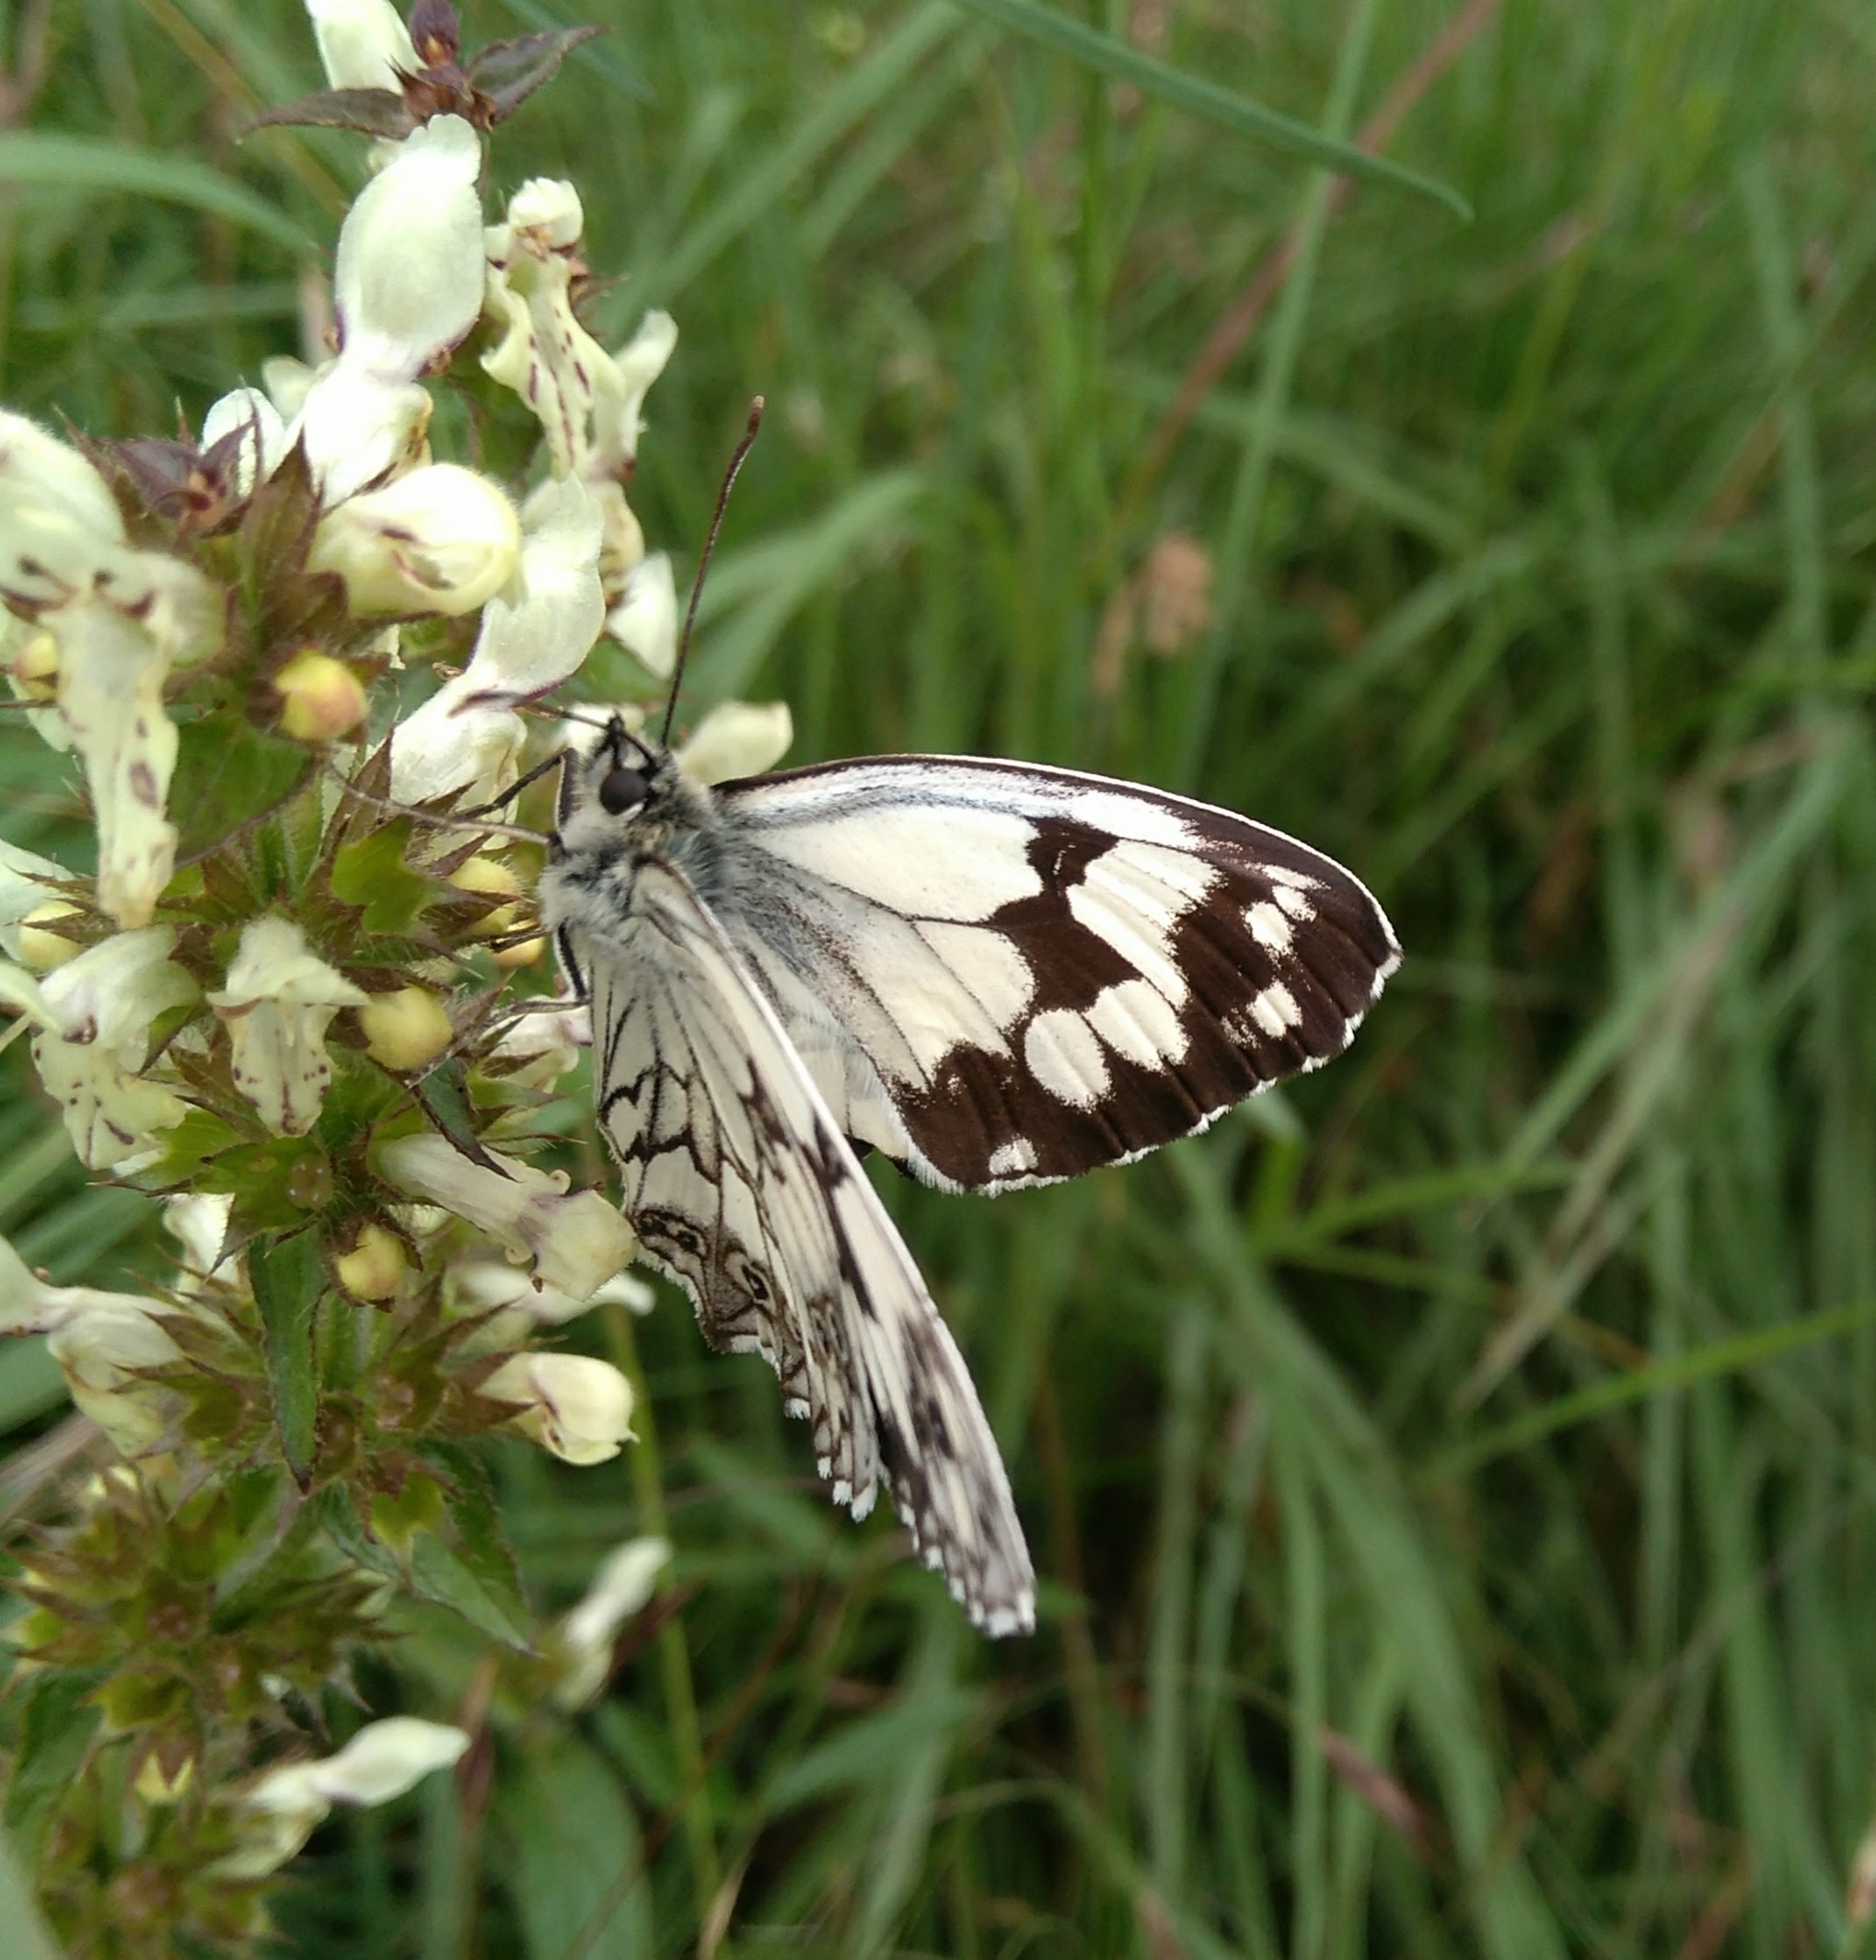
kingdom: Animalia
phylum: Arthropoda
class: Insecta
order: Lepidoptera
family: Nymphalidae
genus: Melanargia
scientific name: Melanargia lachesis
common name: Iberian marbled white
